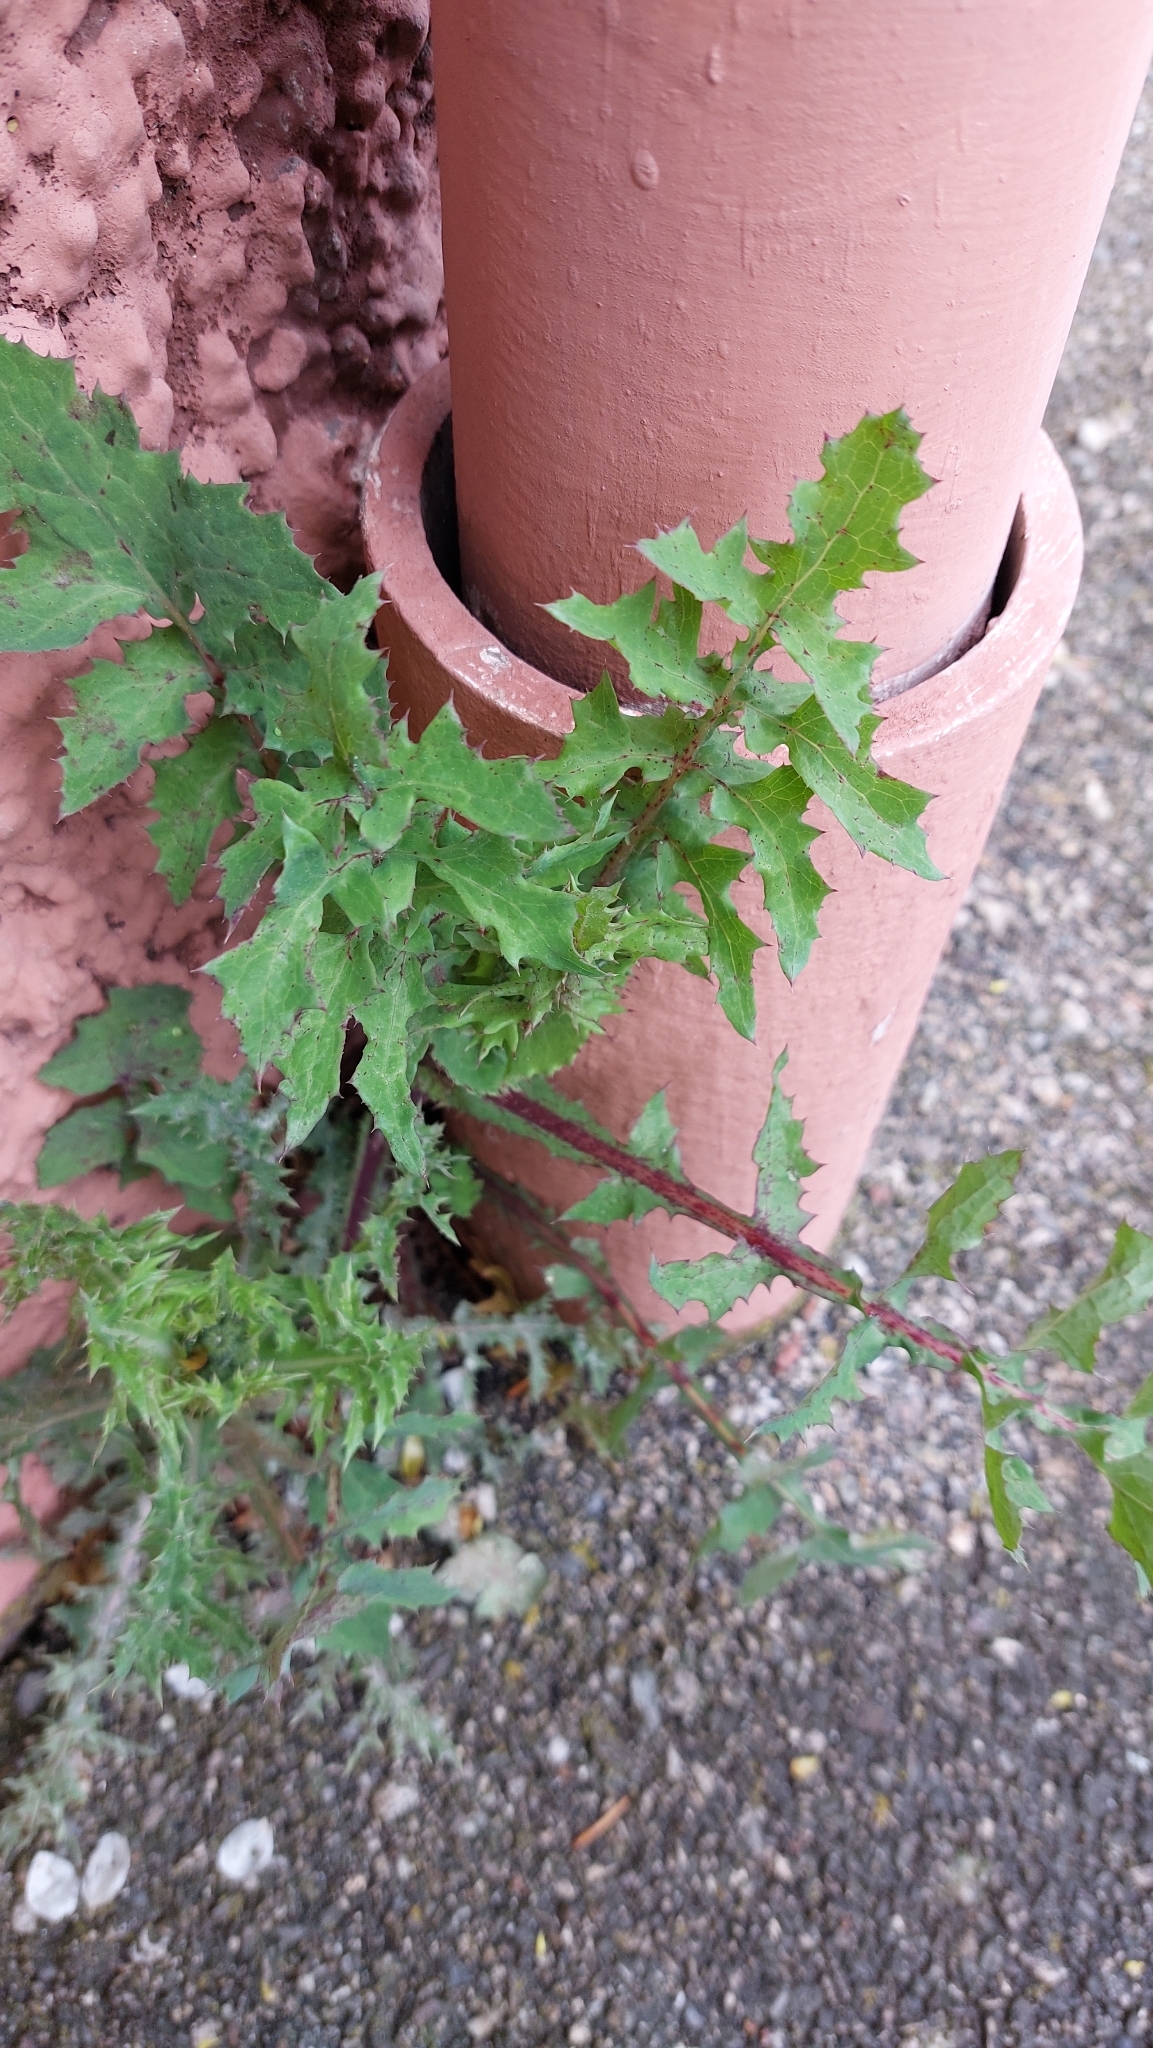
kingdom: Plantae
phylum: Tracheophyta
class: Magnoliopsida
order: Asterales
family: Asteraceae
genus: Sonchus
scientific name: Sonchus oleraceus
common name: Common sowthistle
